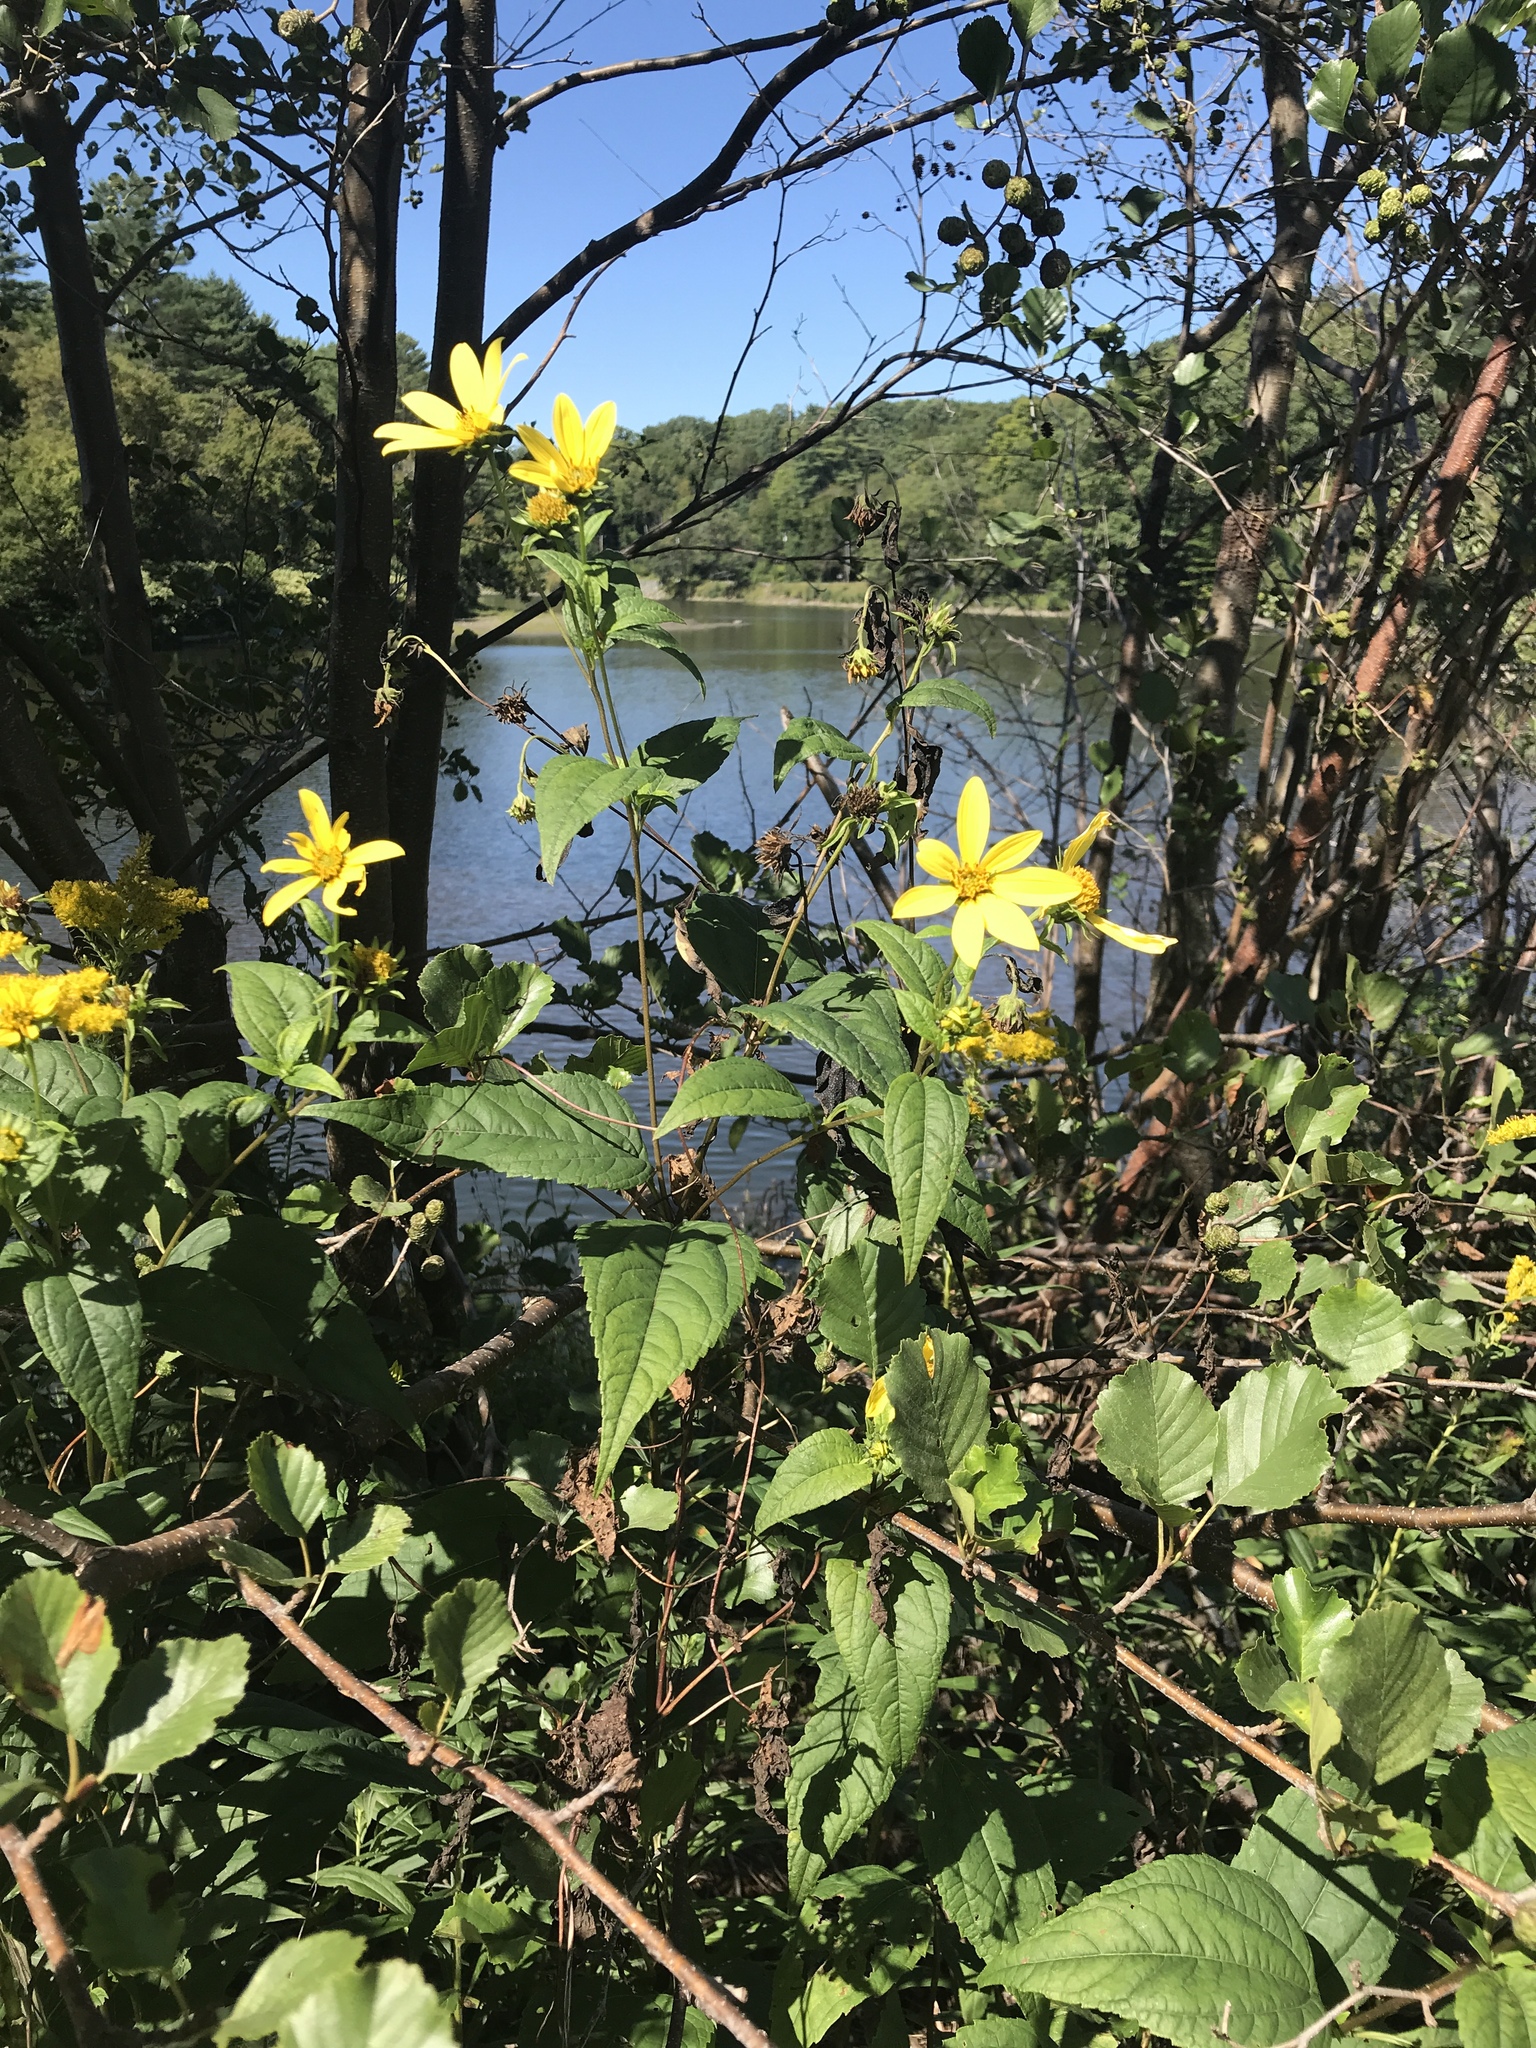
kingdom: Plantae
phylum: Tracheophyta
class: Magnoliopsida
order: Asterales
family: Asteraceae
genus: Helianthus
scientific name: Helianthus tuberosus
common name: Jerusalem artichoke
